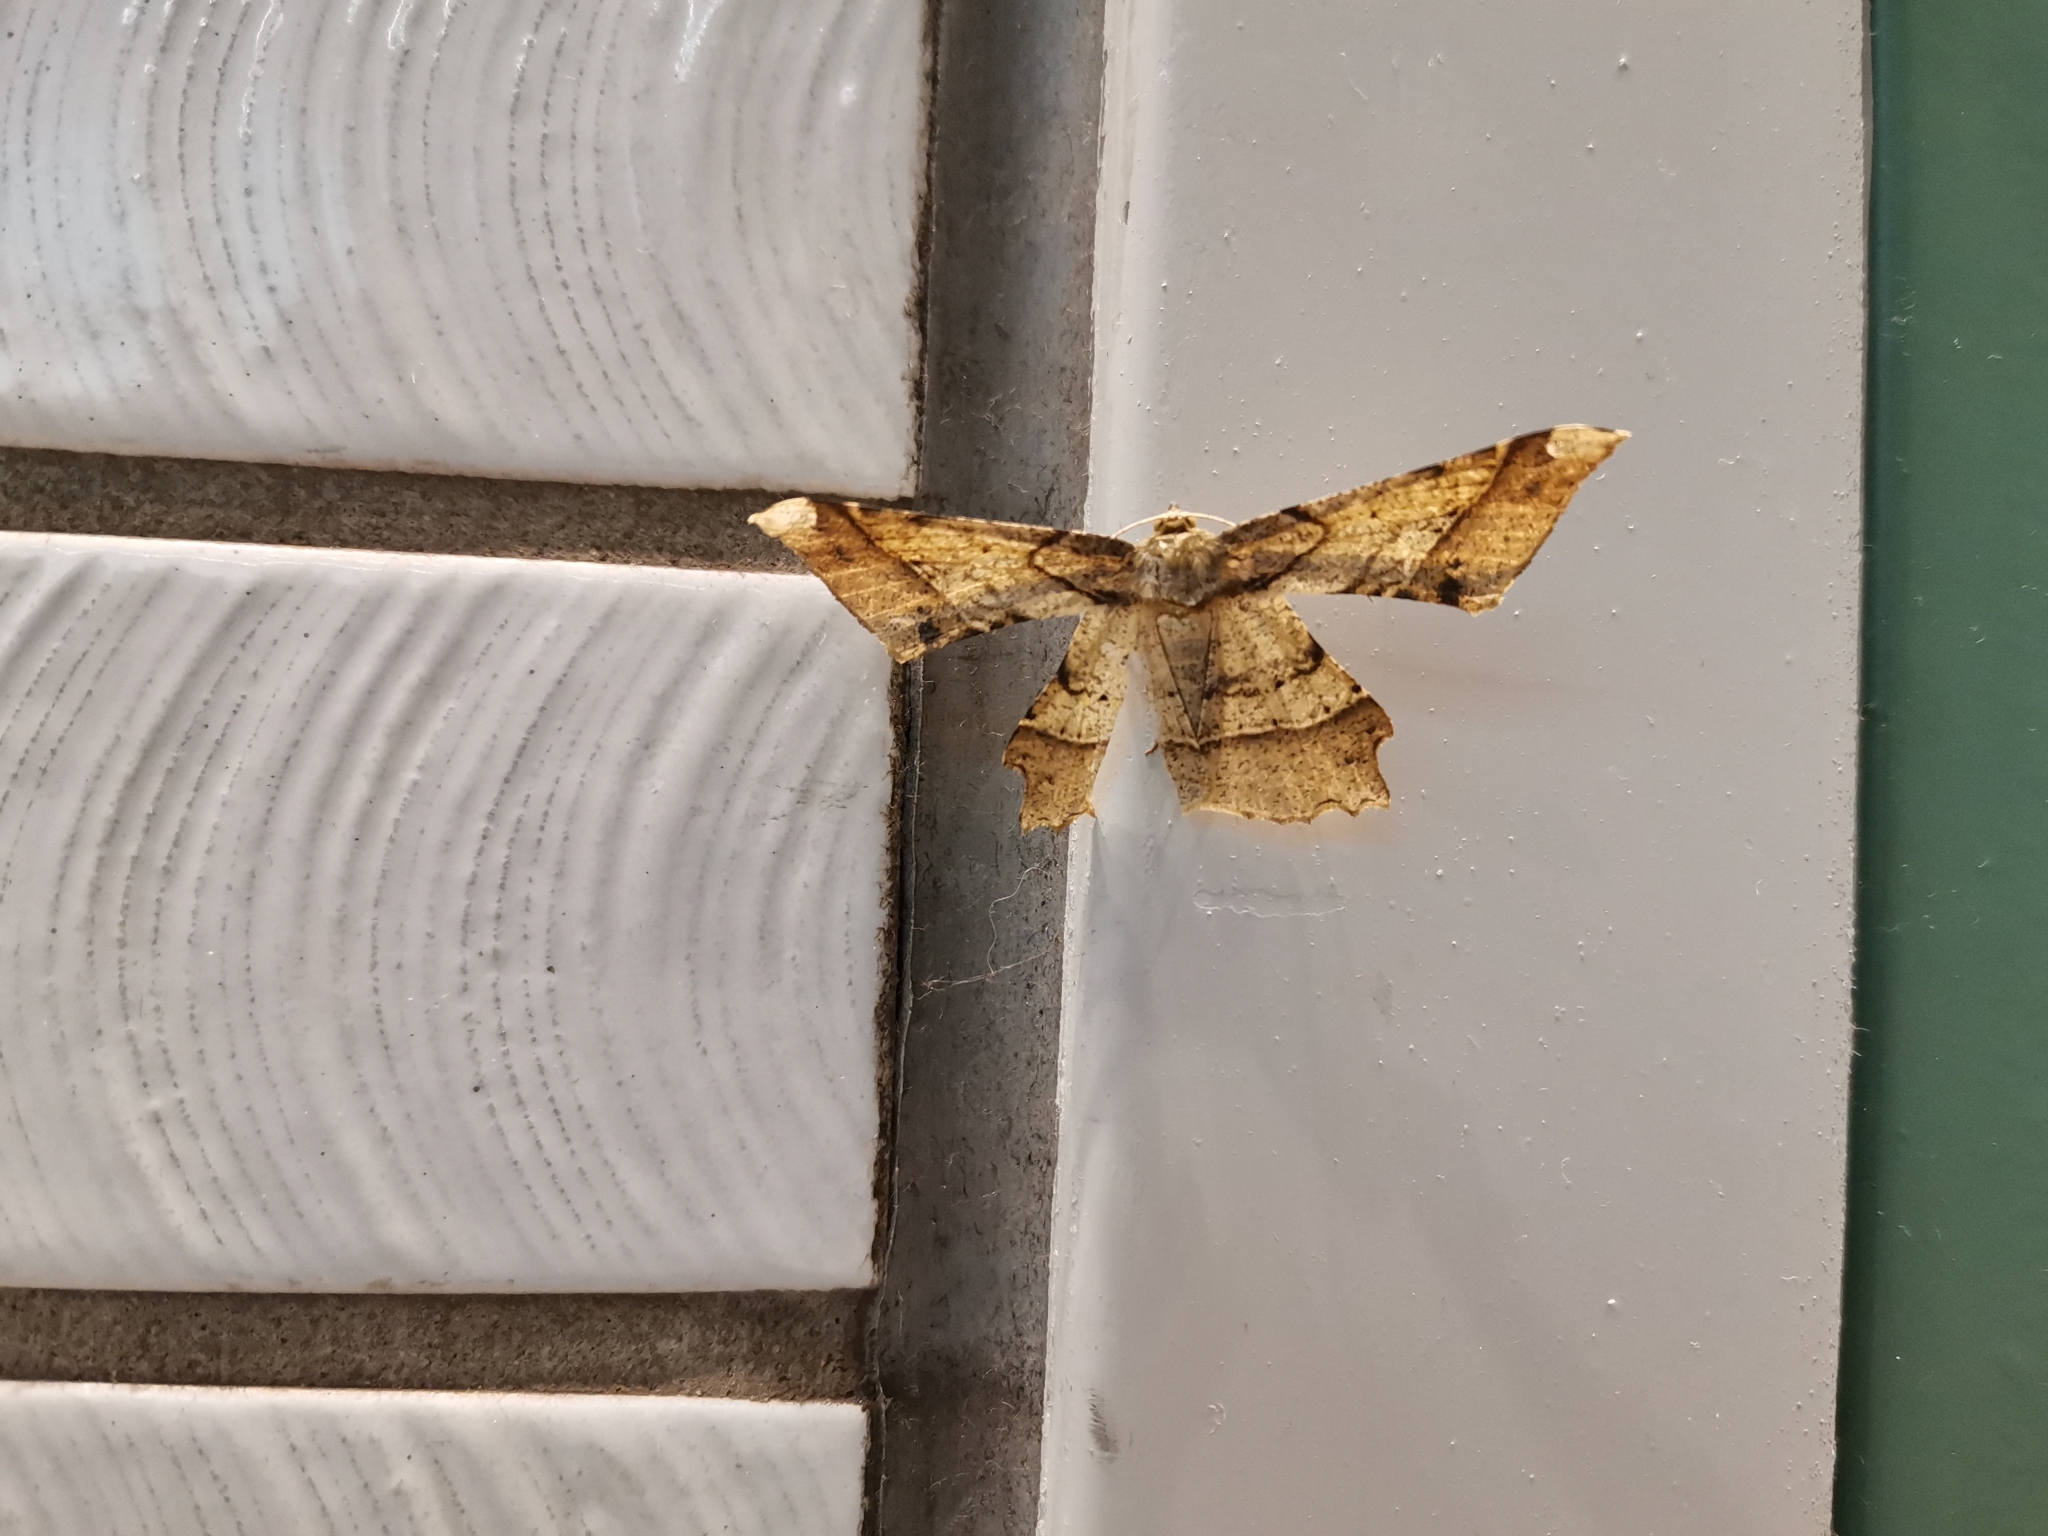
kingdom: Animalia
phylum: Arthropoda
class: Insecta
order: Lepidoptera
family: Geometridae
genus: Krananda
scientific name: Krananda latimarginaria
